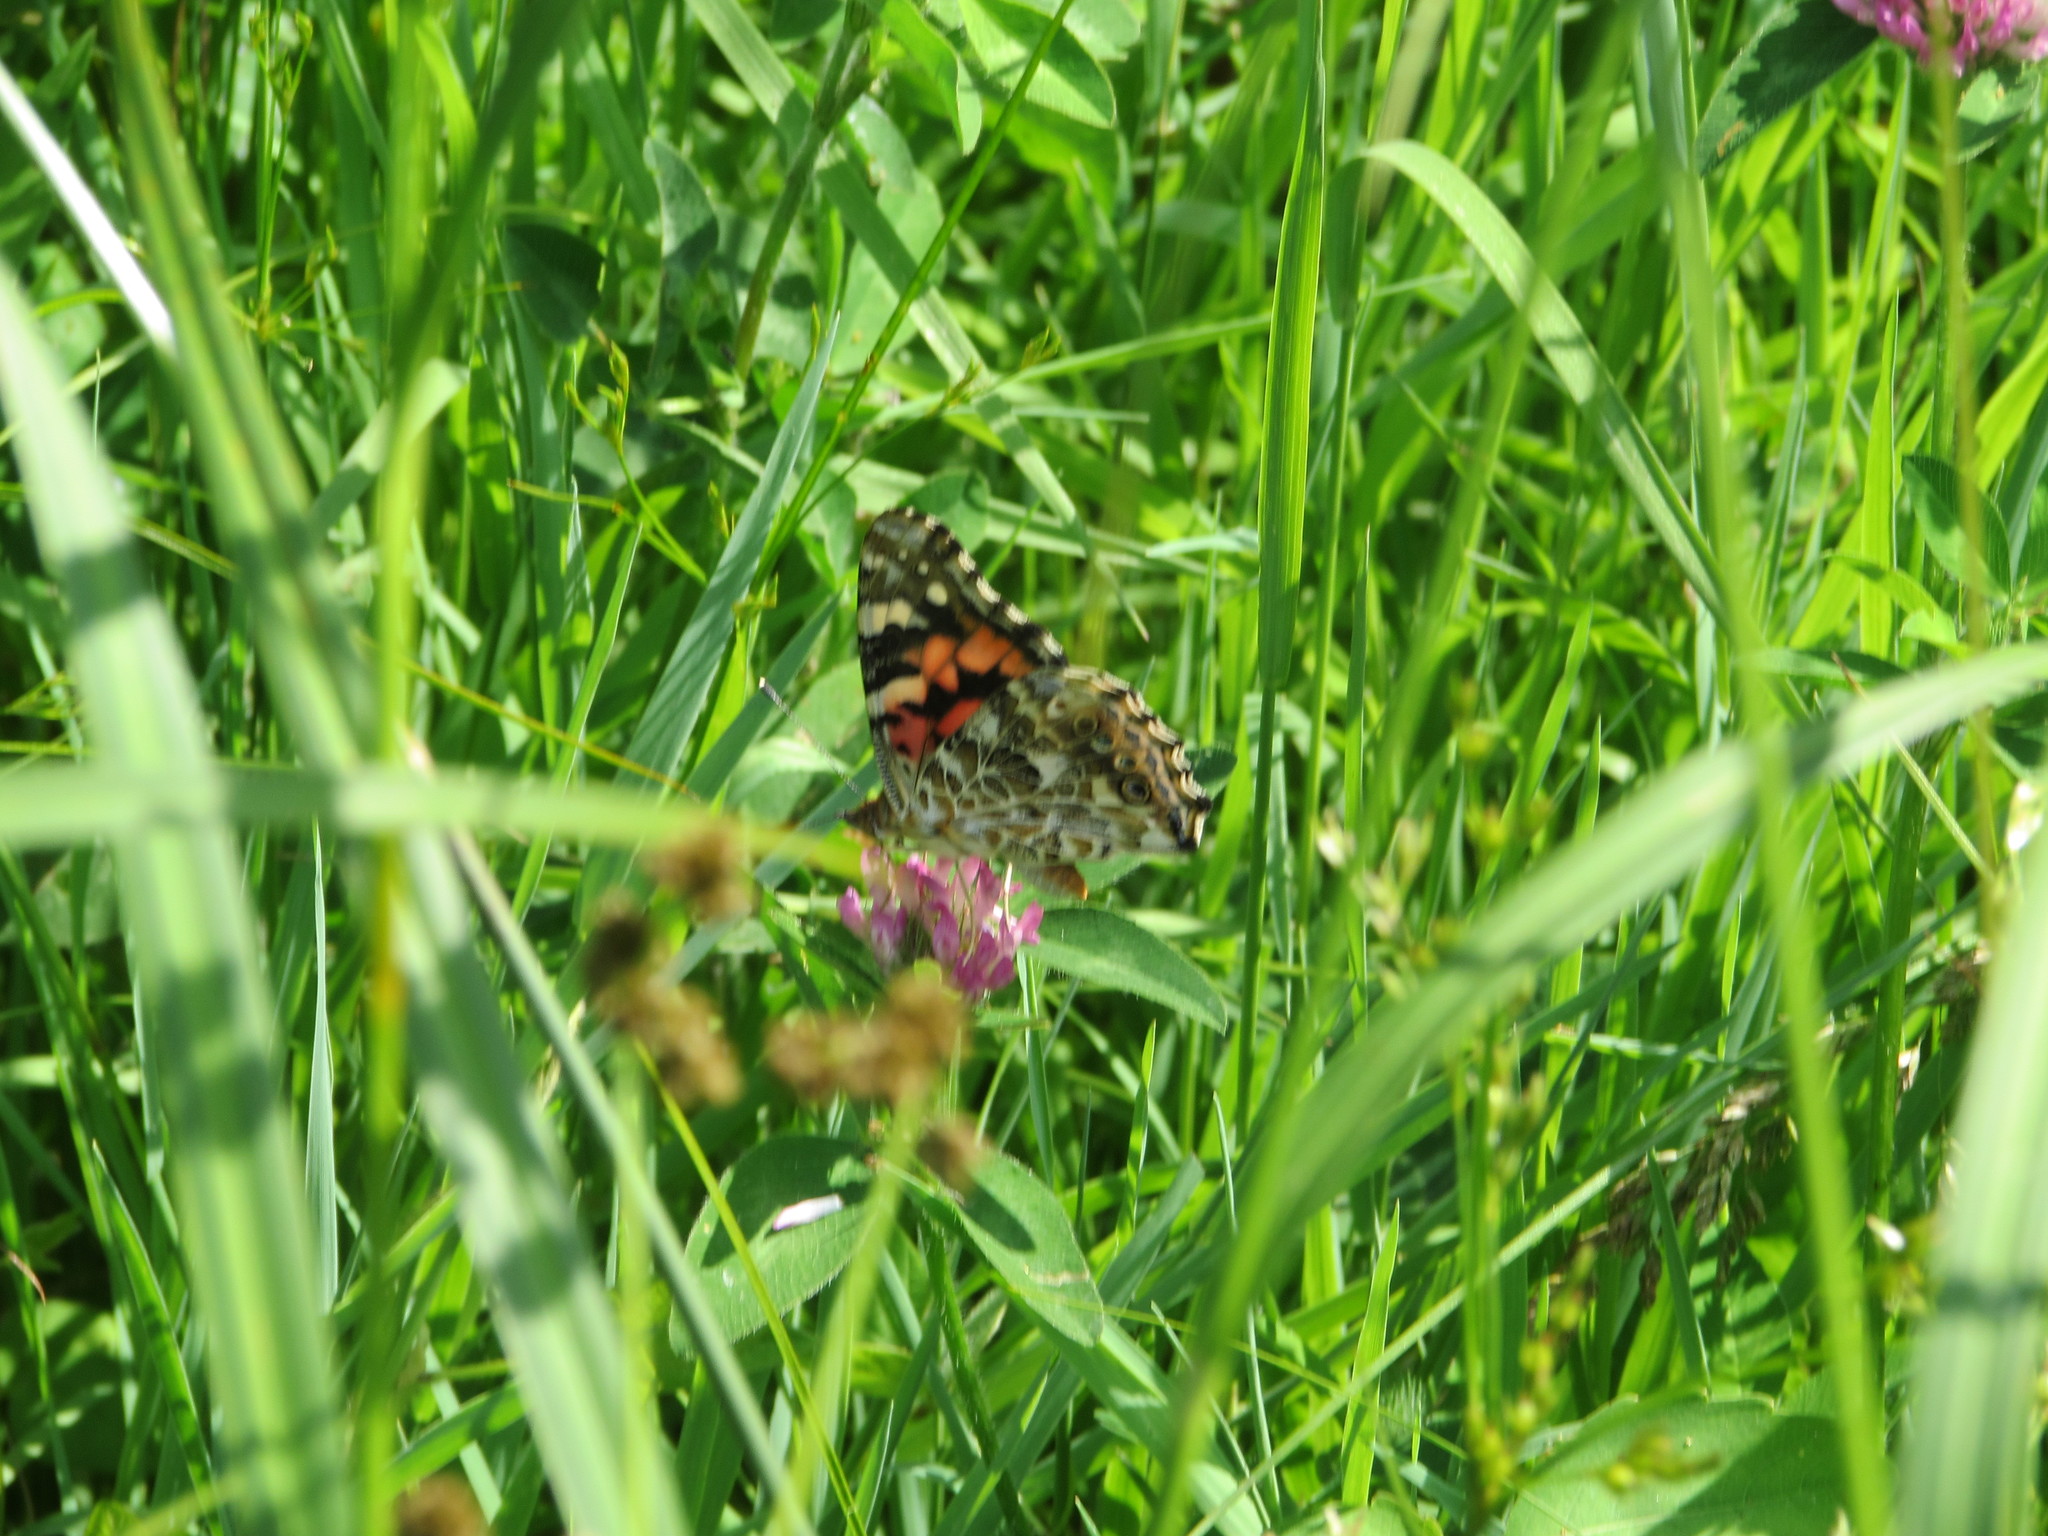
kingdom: Animalia
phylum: Arthropoda
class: Insecta
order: Lepidoptera
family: Nymphalidae
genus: Vanessa
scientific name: Vanessa cardui
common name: Painted lady
